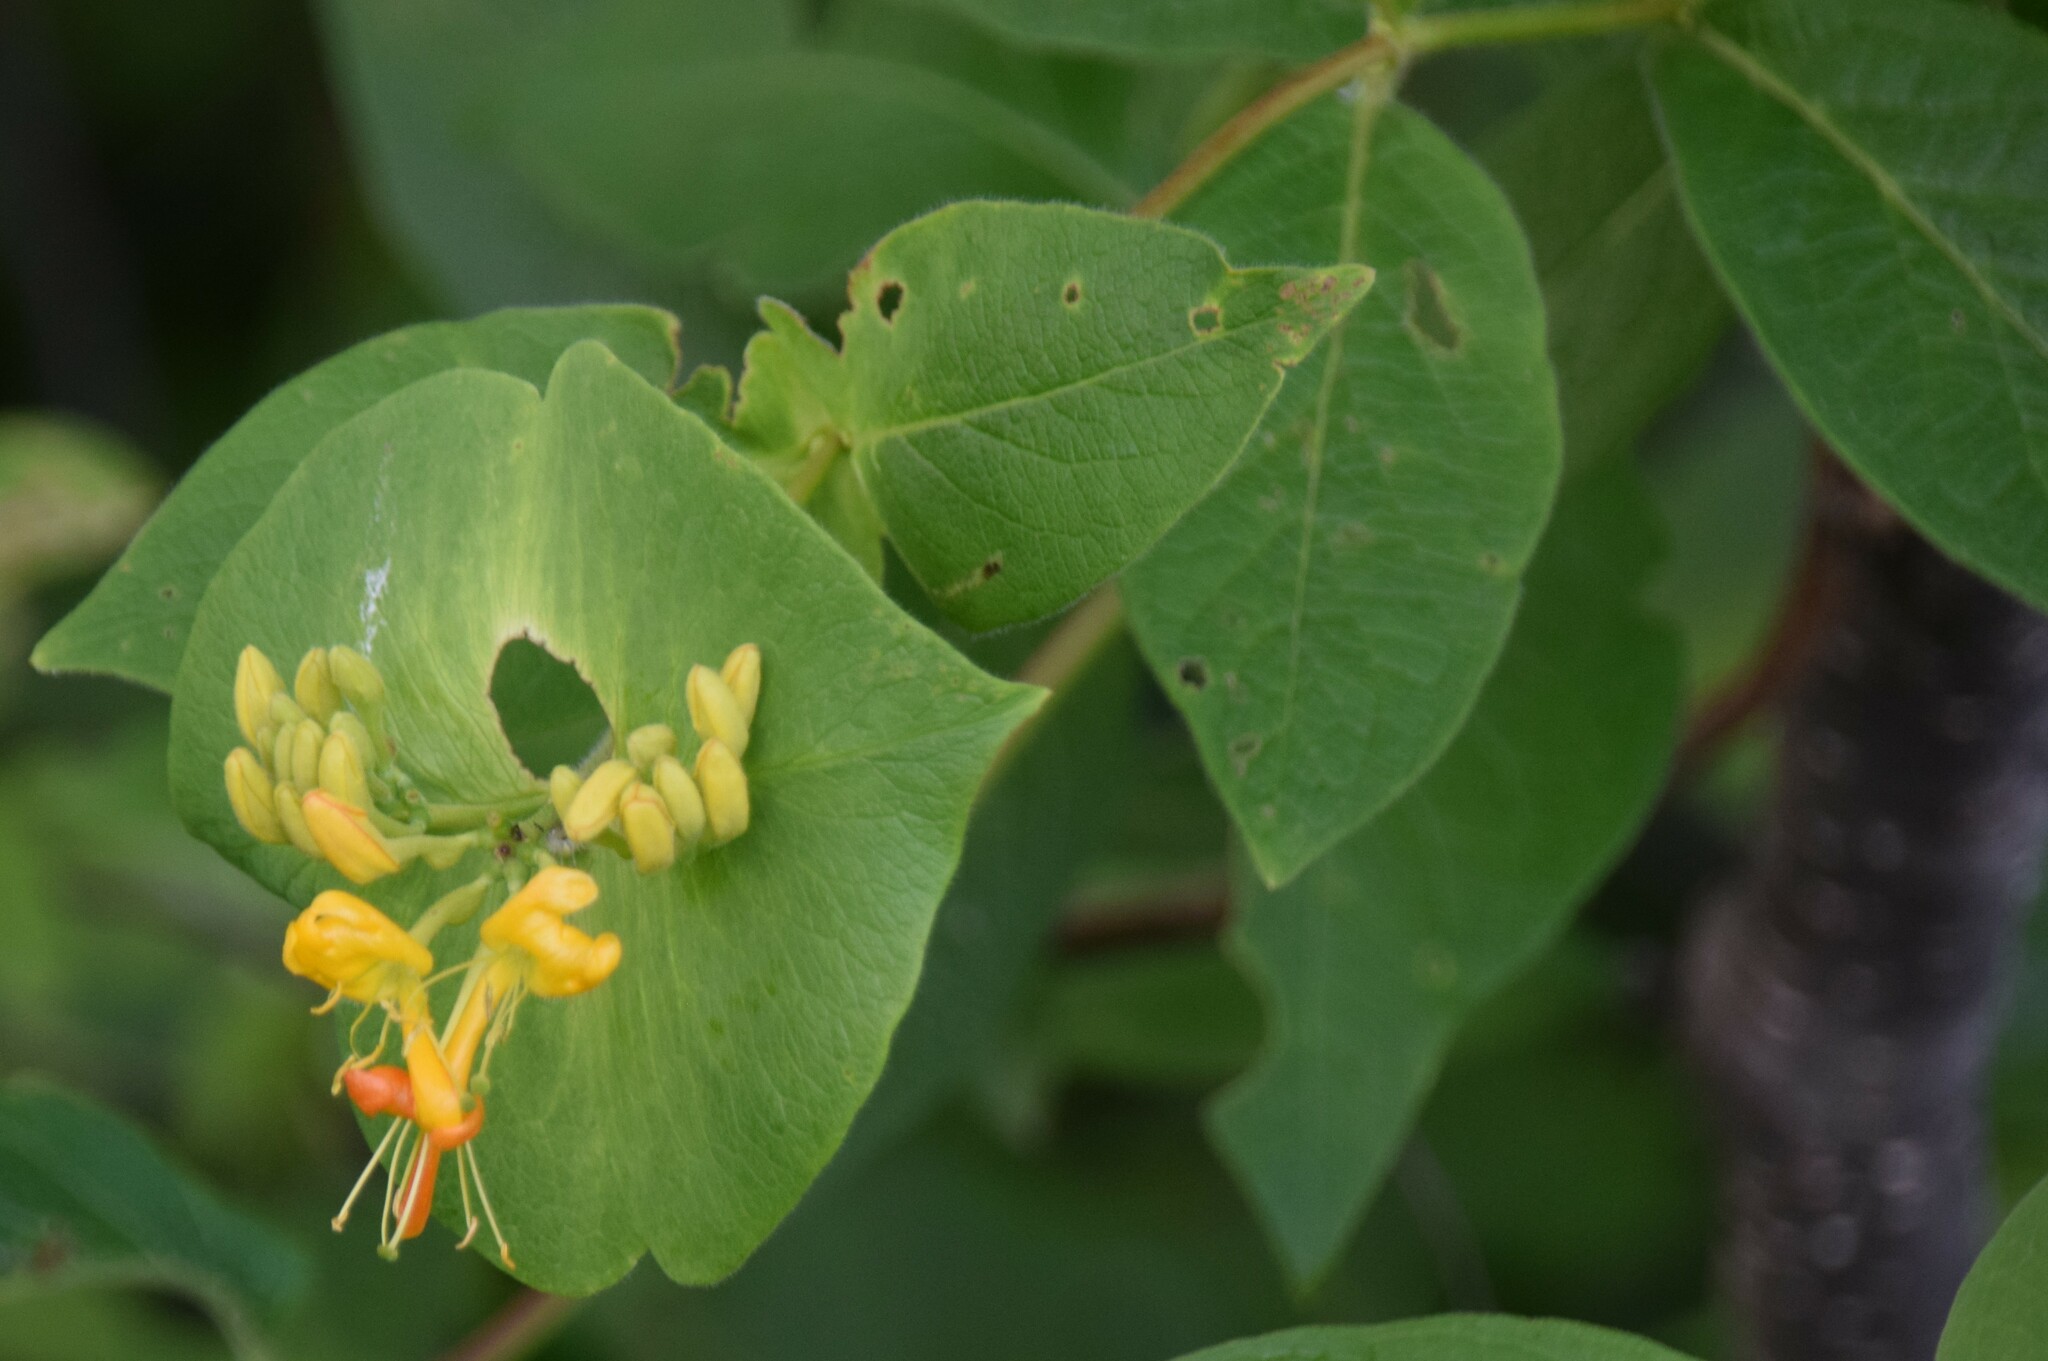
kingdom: Plantae
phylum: Tracheophyta
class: Magnoliopsida
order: Dipsacales
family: Caprifoliaceae
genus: Lonicera
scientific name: Lonicera hirsuta
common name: Hairy honeysuckle
